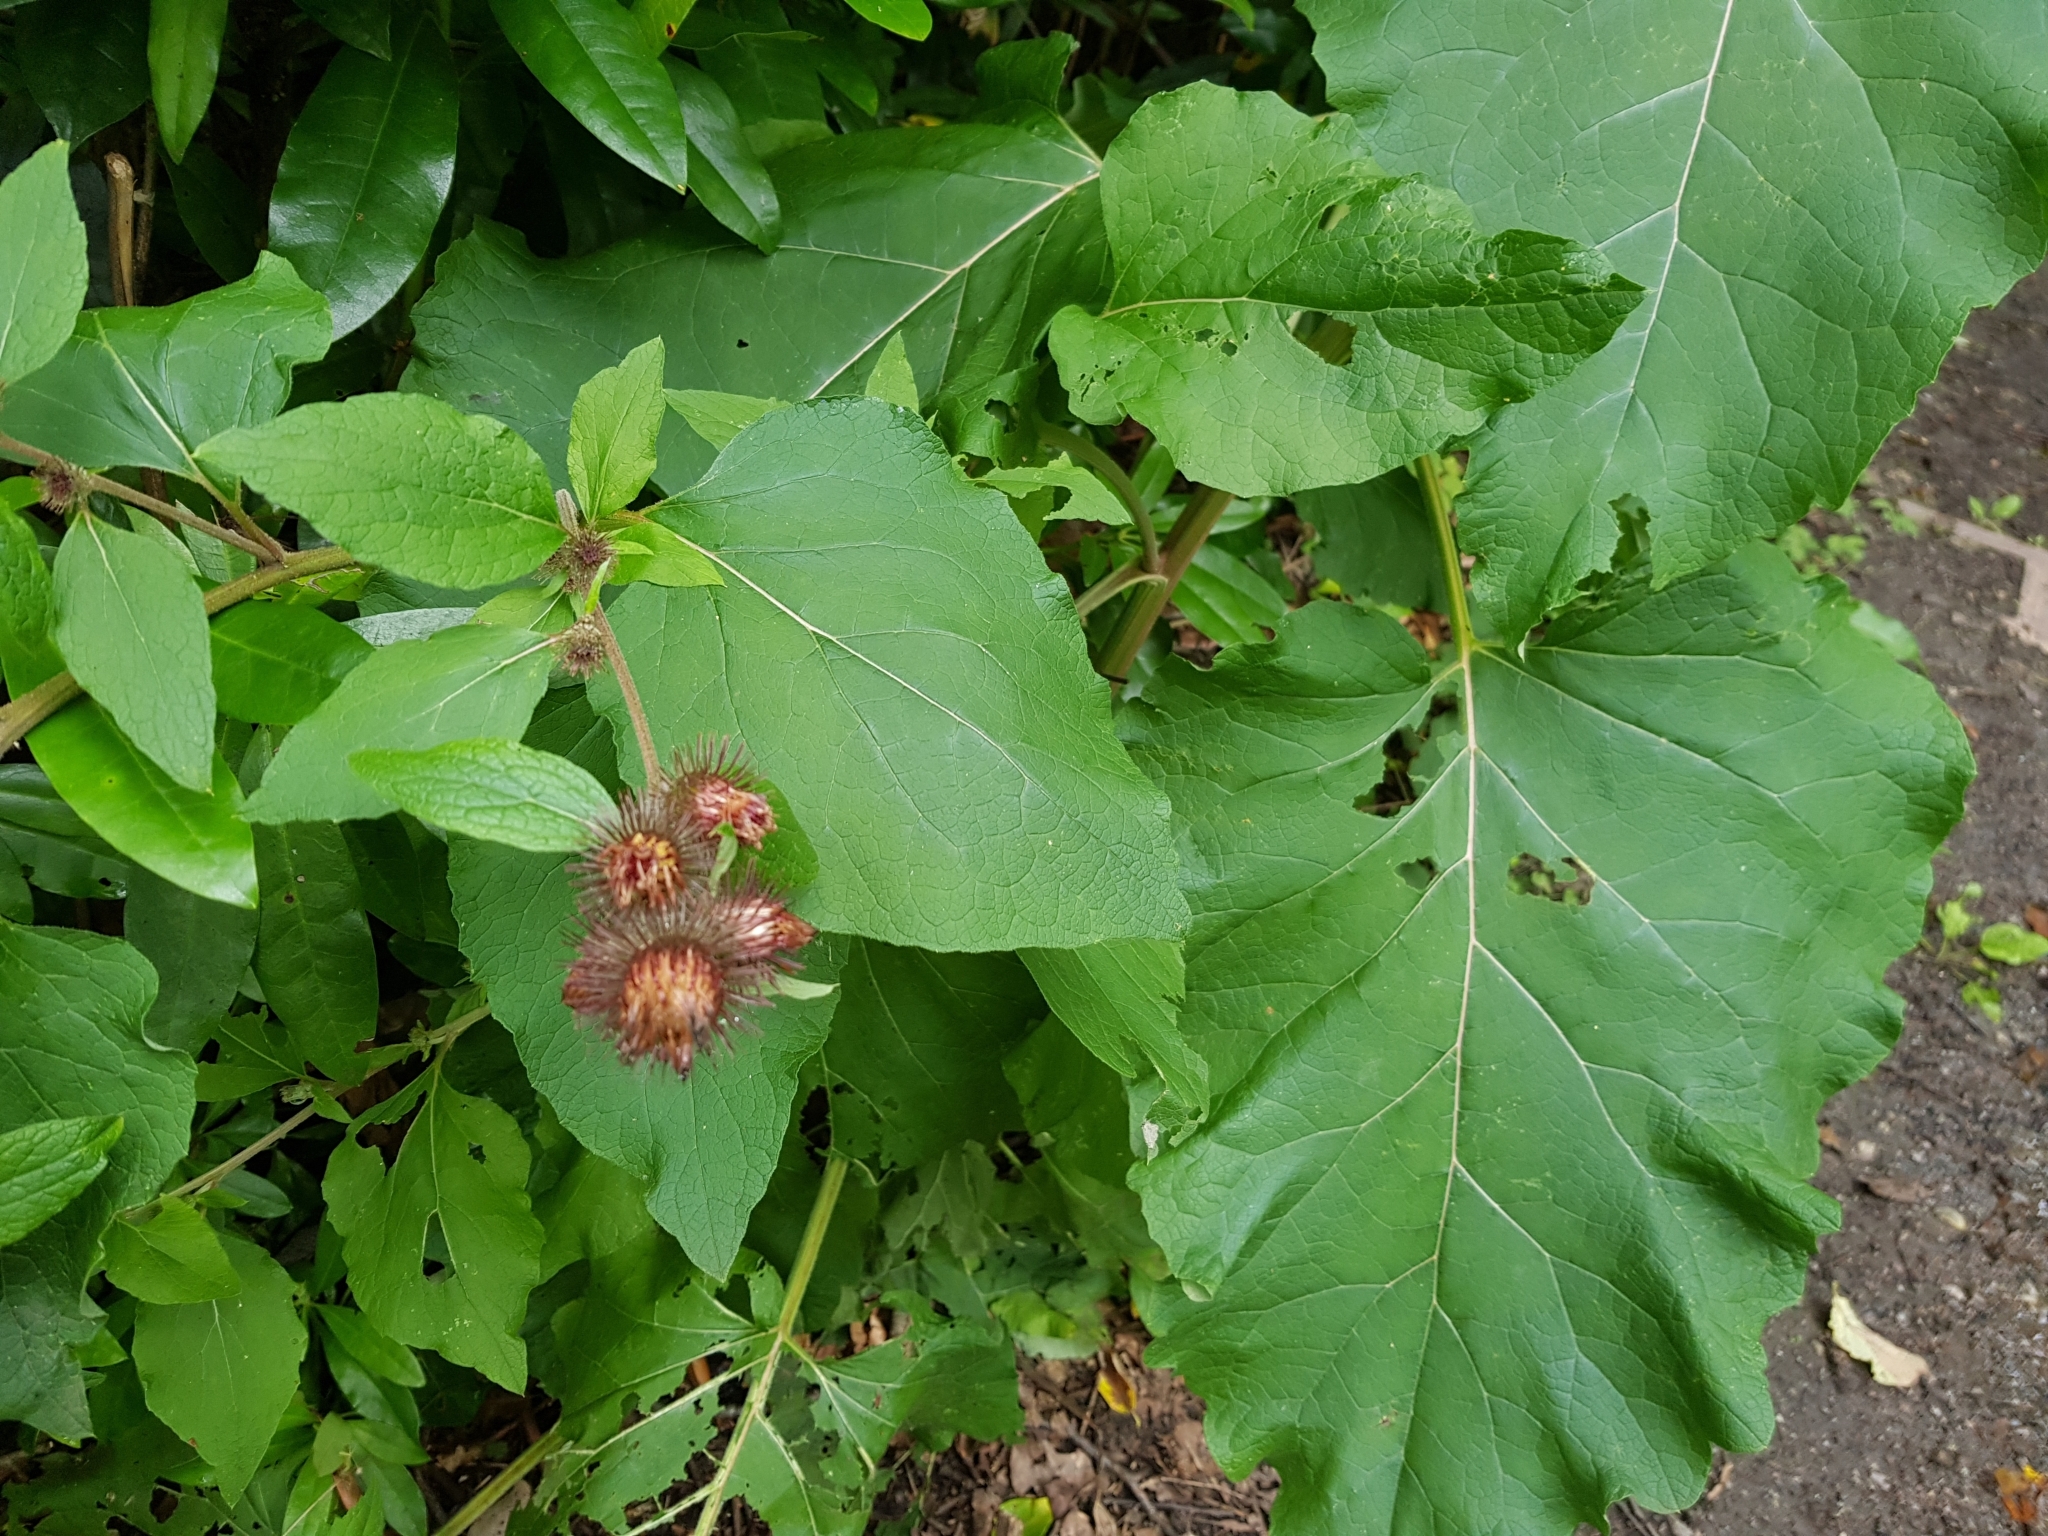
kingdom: Plantae
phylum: Tracheophyta
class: Magnoliopsida
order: Asterales
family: Asteraceae
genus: Arctium
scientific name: Arctium lappa
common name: Greater burdock
